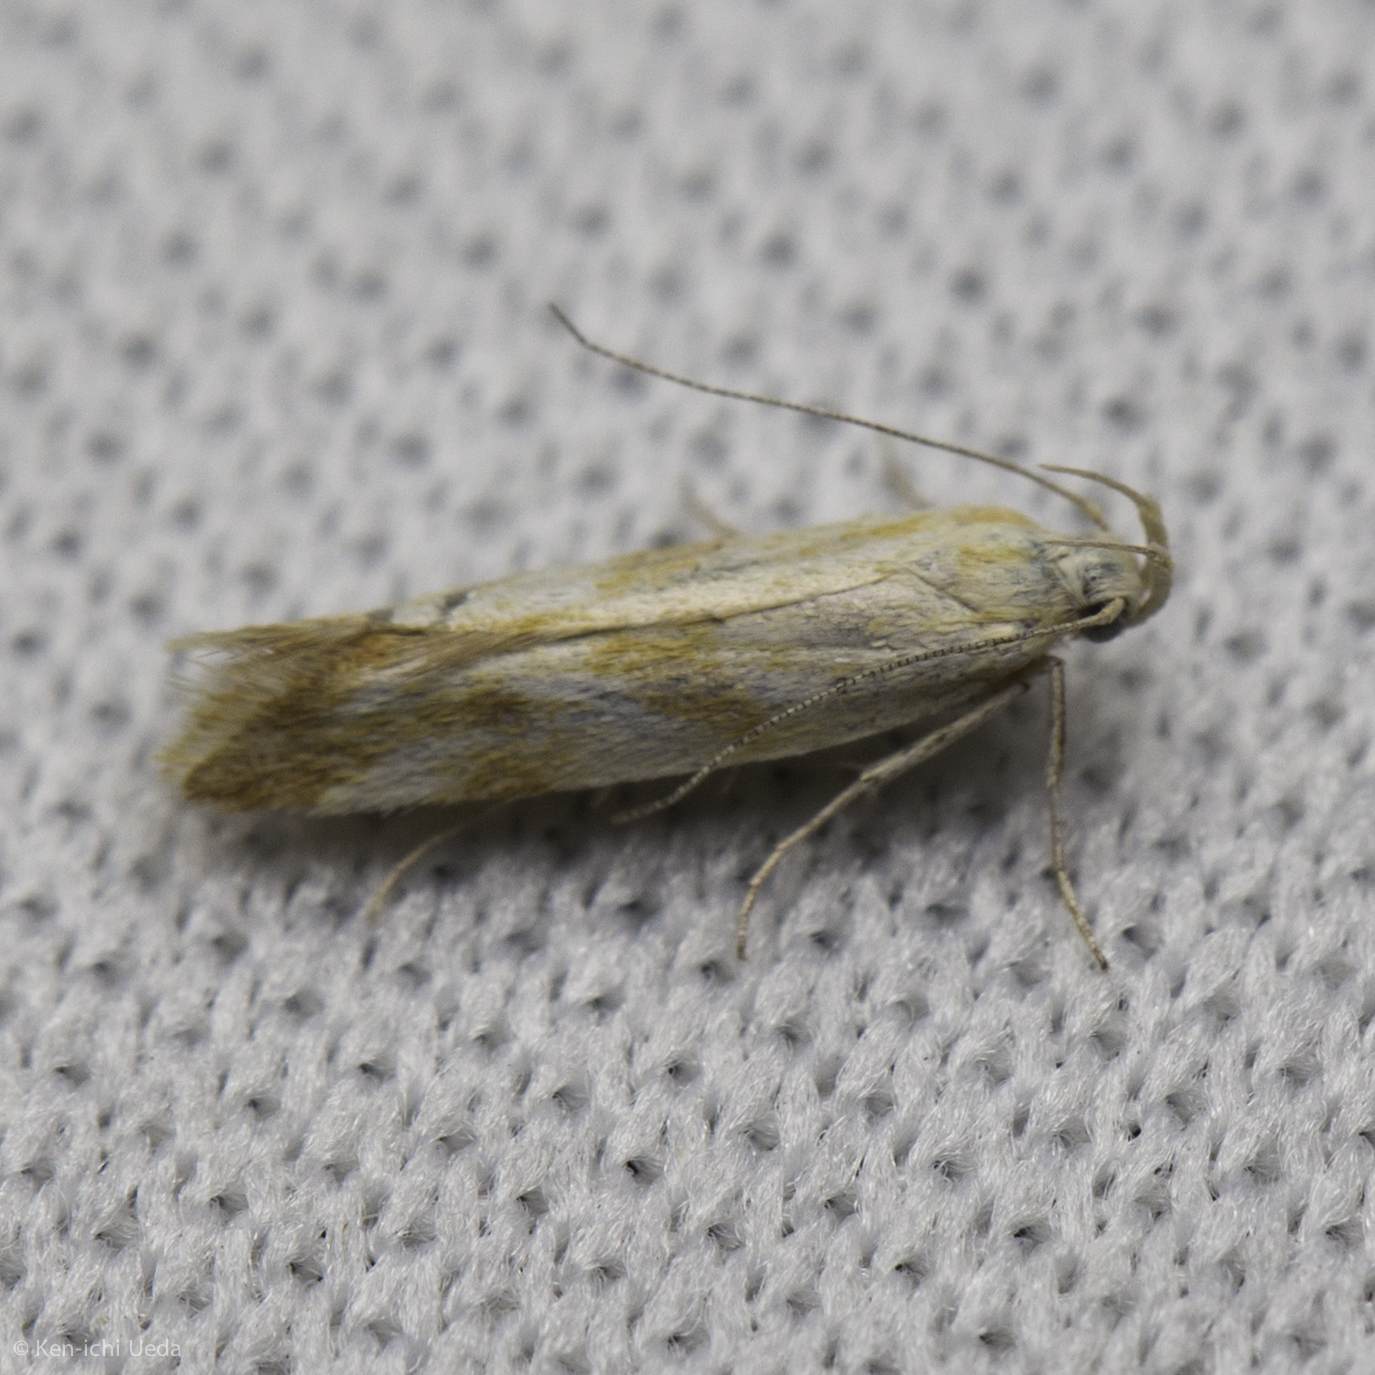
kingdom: Animalia
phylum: Arthropoda
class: Insecta
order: Lepidoptera
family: Gelechiidae
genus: Mirificarma
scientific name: Mirificarma eburnella
